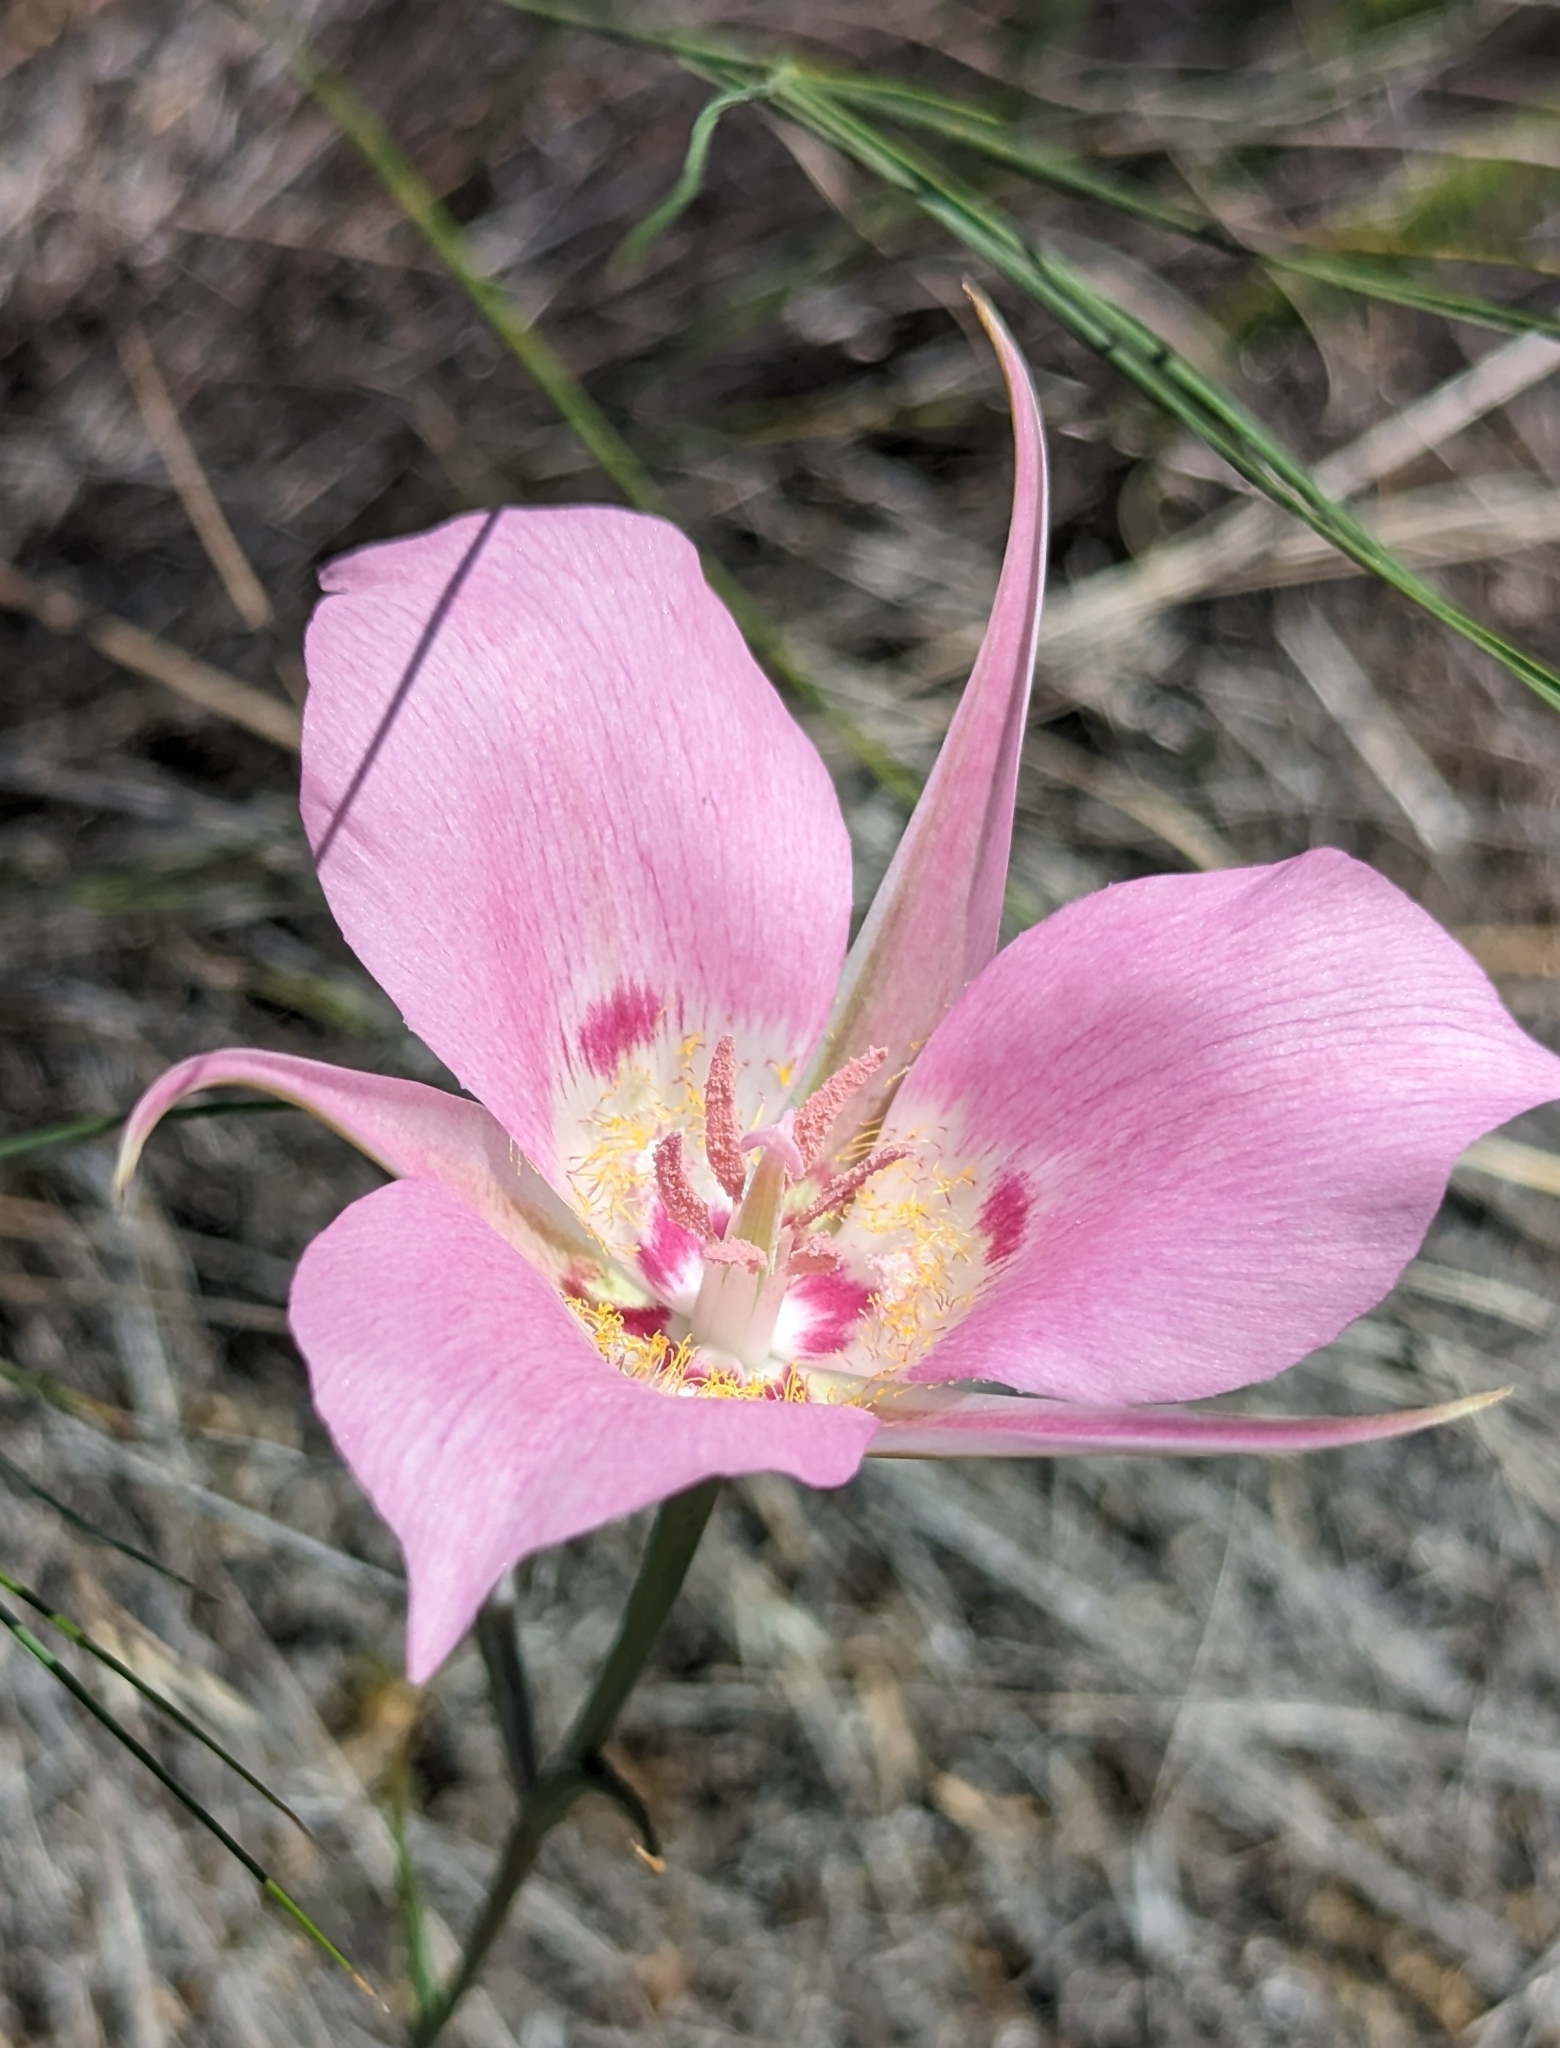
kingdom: Plantae
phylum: Tracheophyta
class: Liliopsida
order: Liliales
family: Liliaceae
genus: Calochortus
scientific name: Calochortus macrocarpus
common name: Green-band mariposa lily
